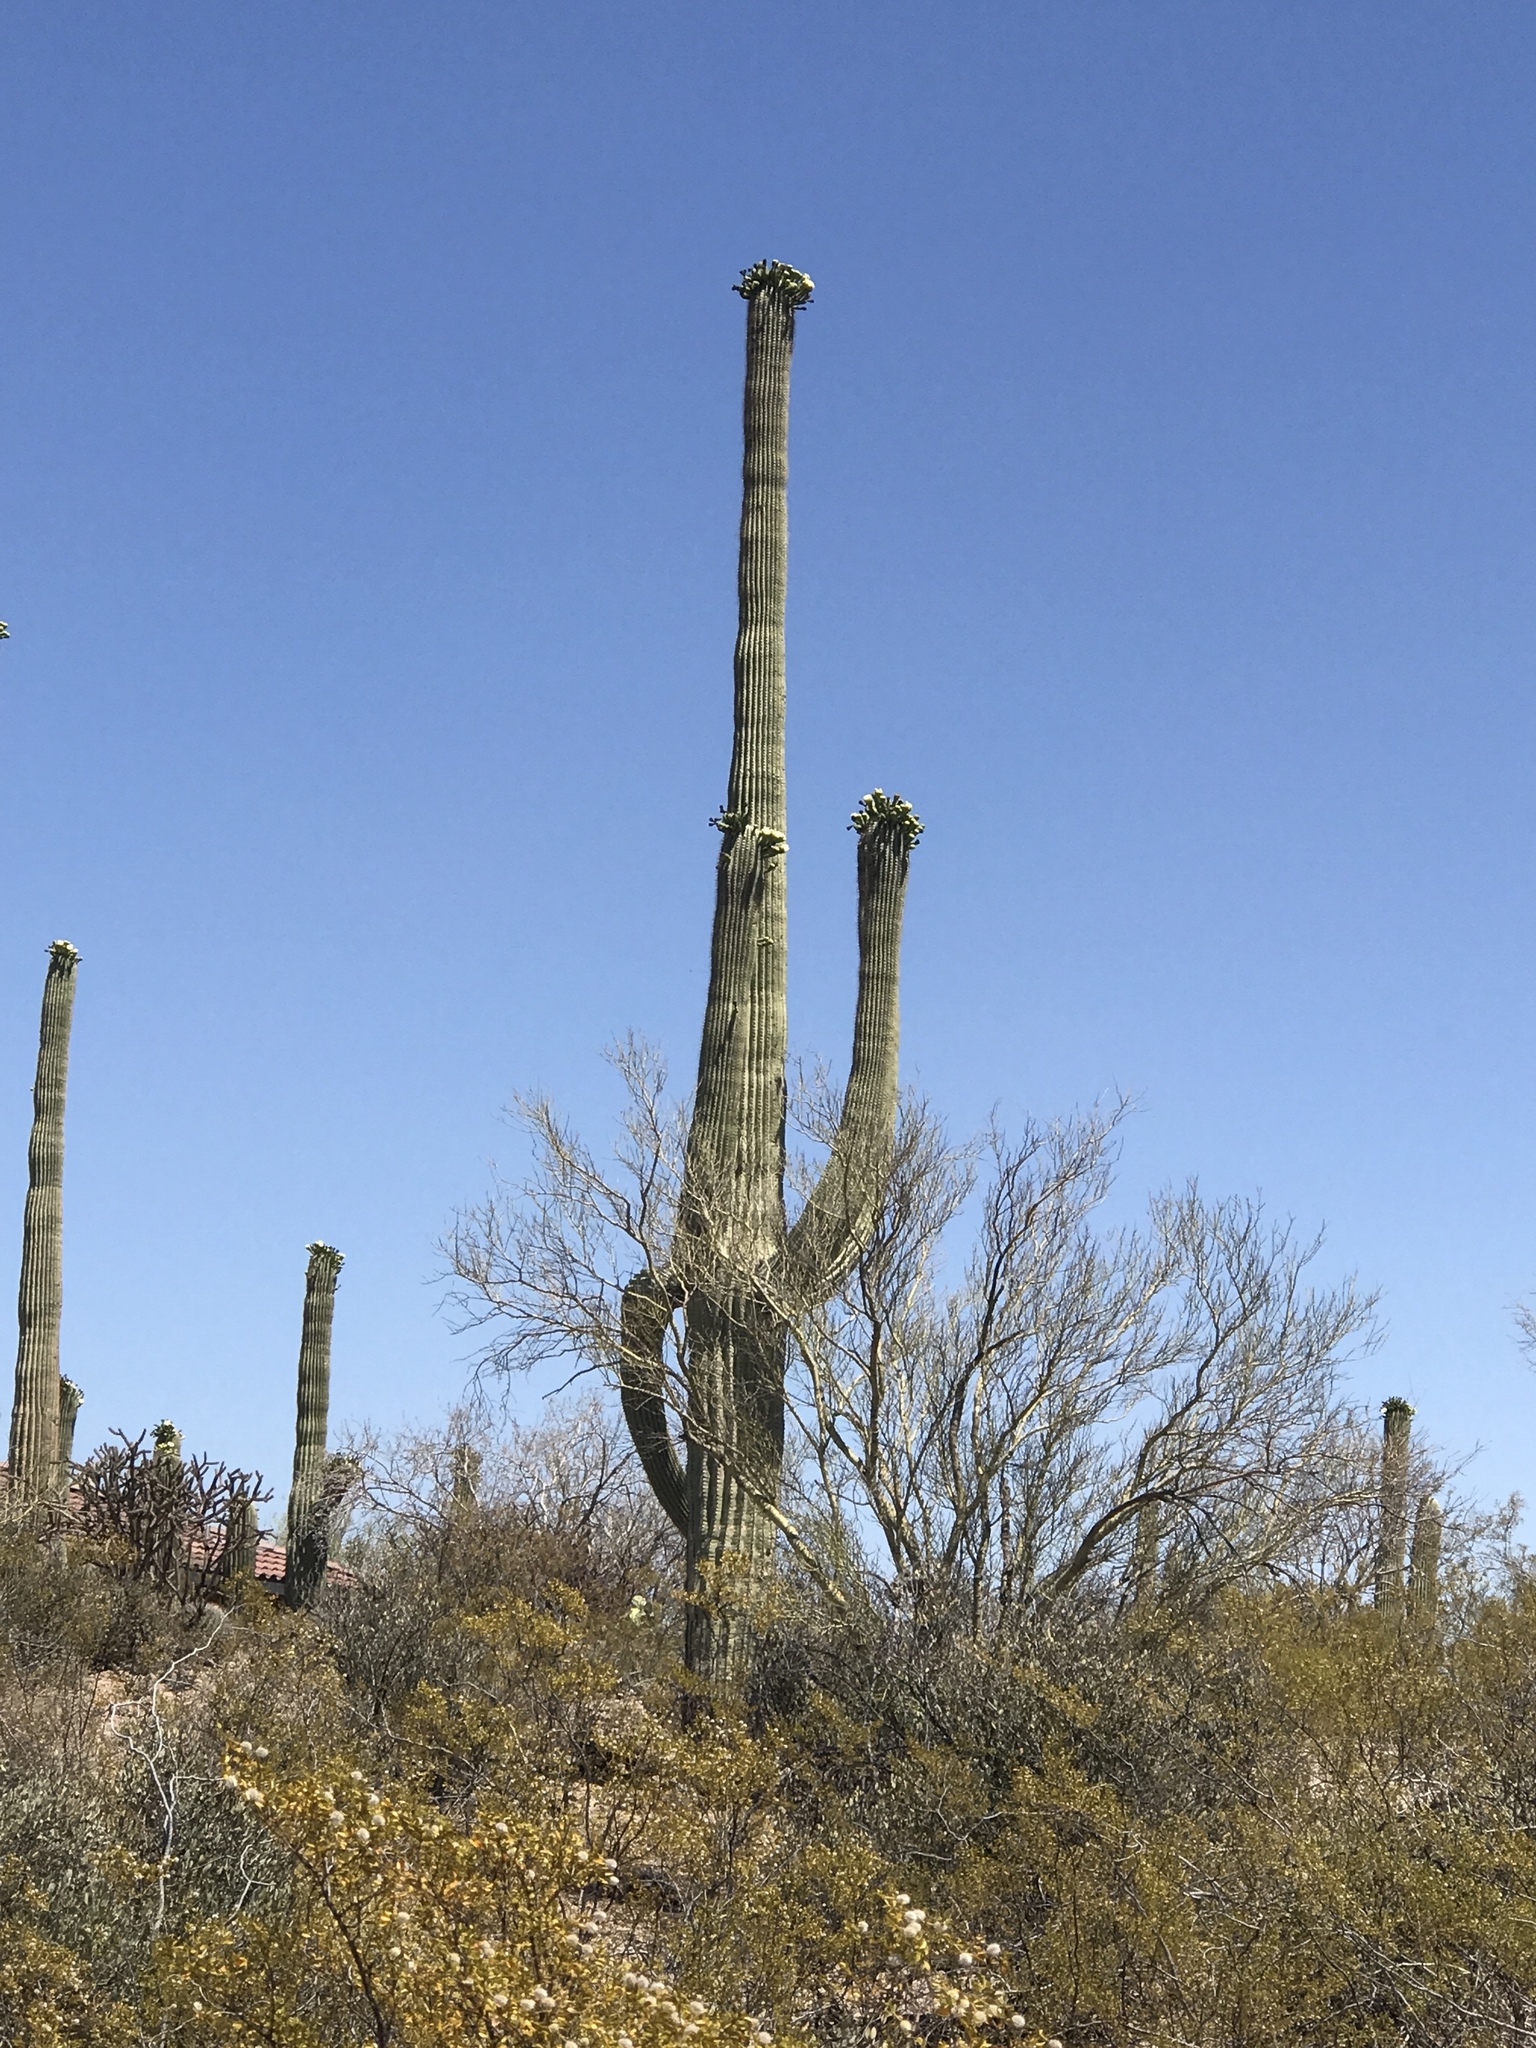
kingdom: Plantae
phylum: Tracheophyta
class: Magnoliopsida
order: Caryophyllales
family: Cactaceae
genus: Carnegiea
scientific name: Carnegiea gigantea
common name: Saguaro
